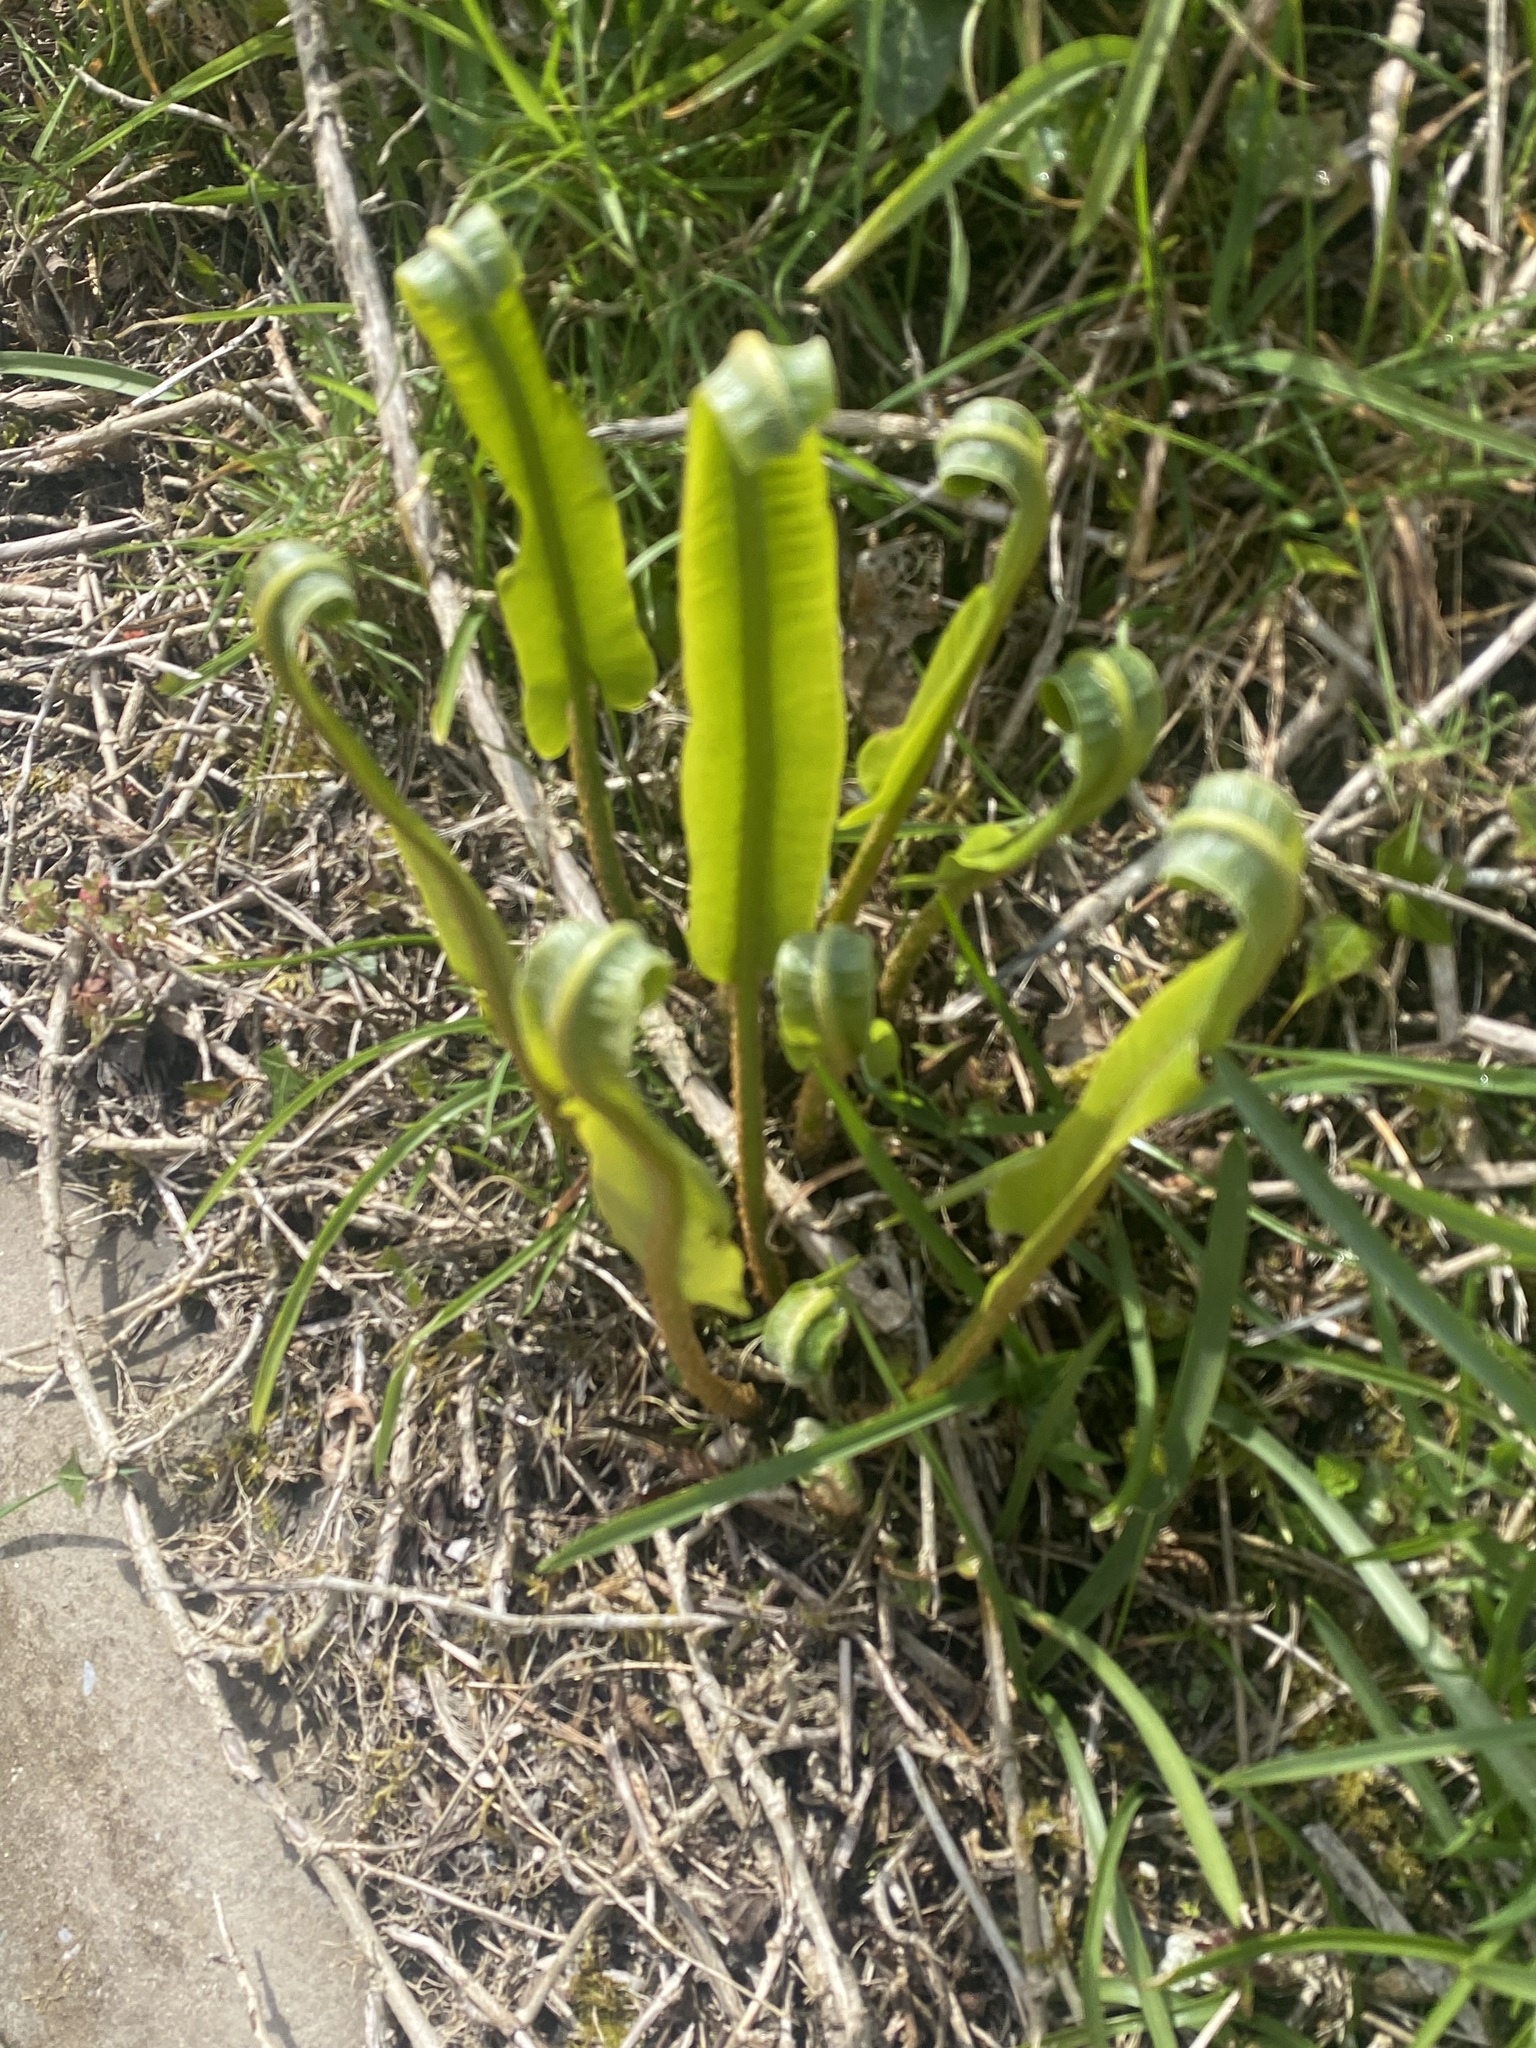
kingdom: Plantae
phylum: Tracheophyta
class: Polypodiopsida
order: Polypodiales
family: Aspleniaceae
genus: Asplenium
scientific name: Asplenium scolopendrium
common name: Hart's-tongue fern
